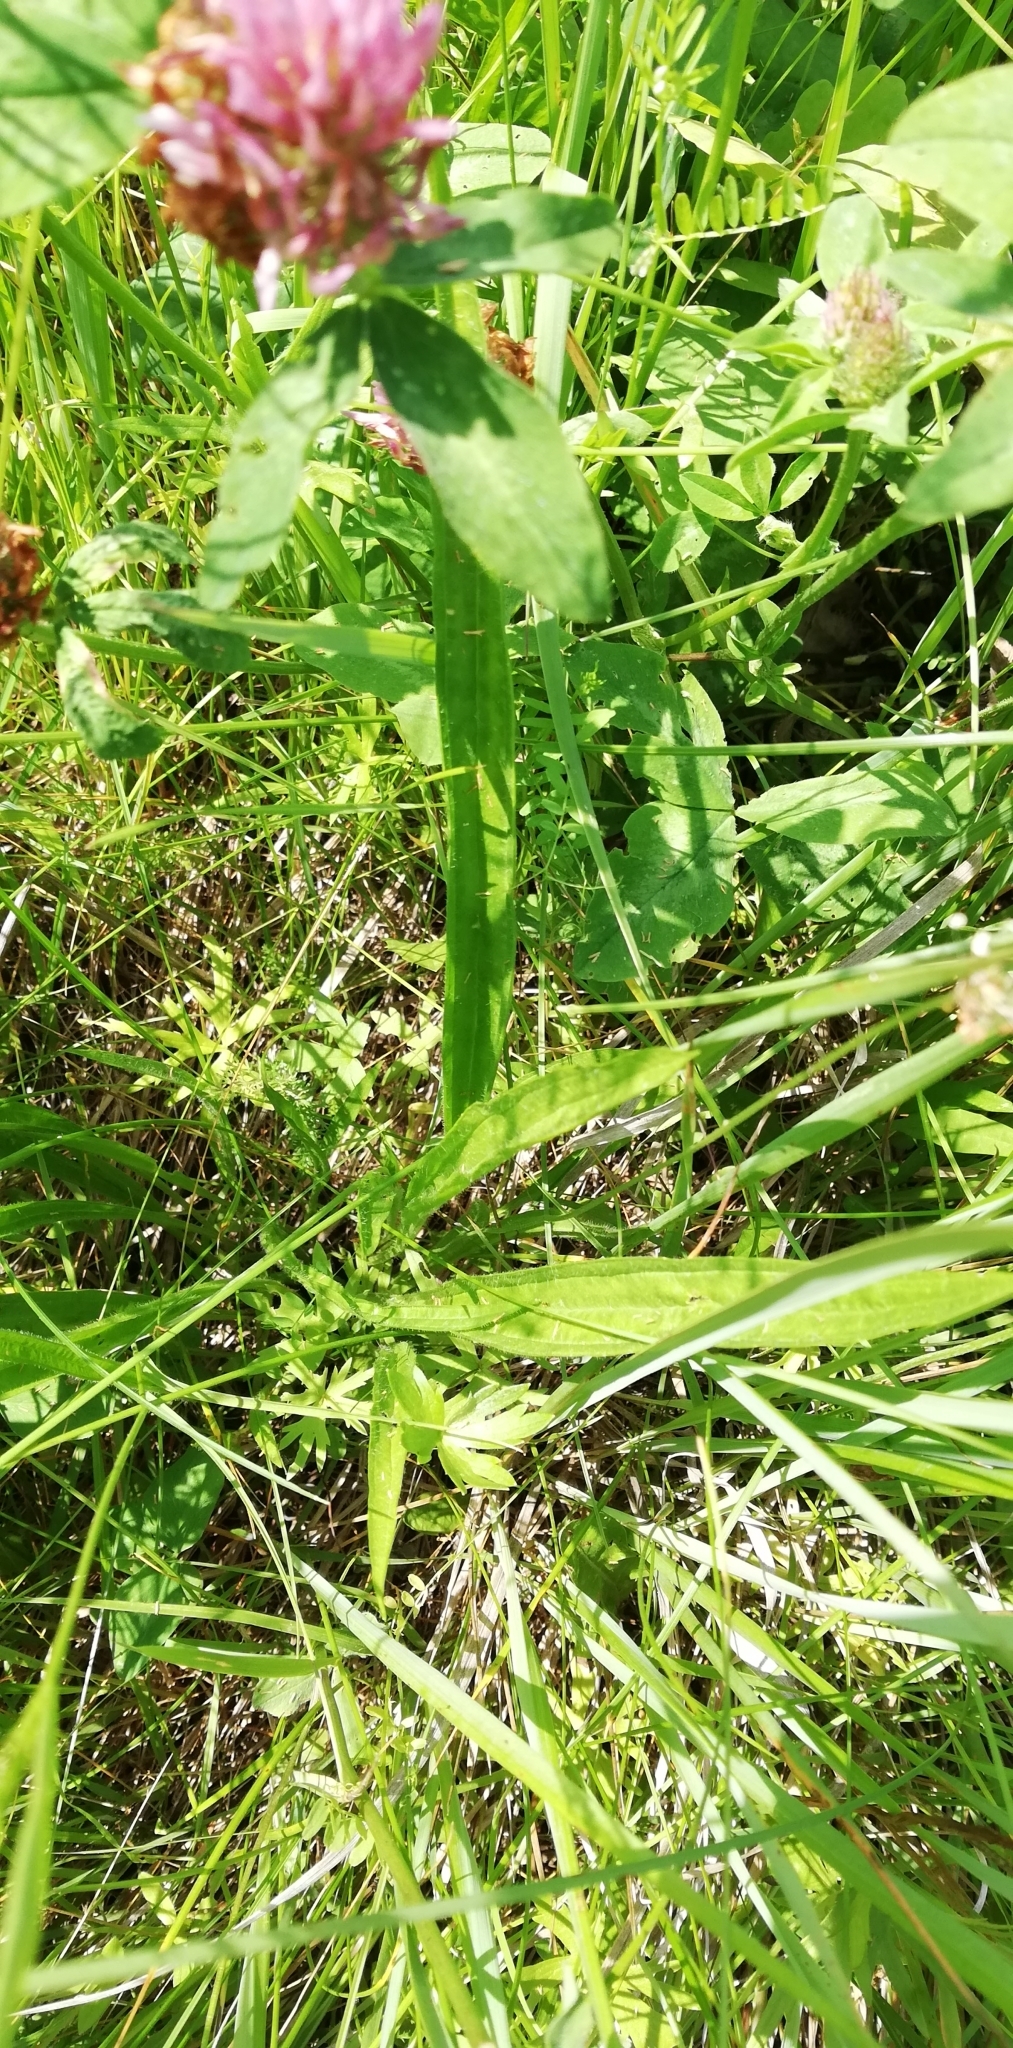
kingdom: Plantae
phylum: Tracheophyta
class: Magnoliopsida
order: Lamiales
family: Plantaginaceae
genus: Plantago
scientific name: Plantago lanceolata
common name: Ribwort plantain
